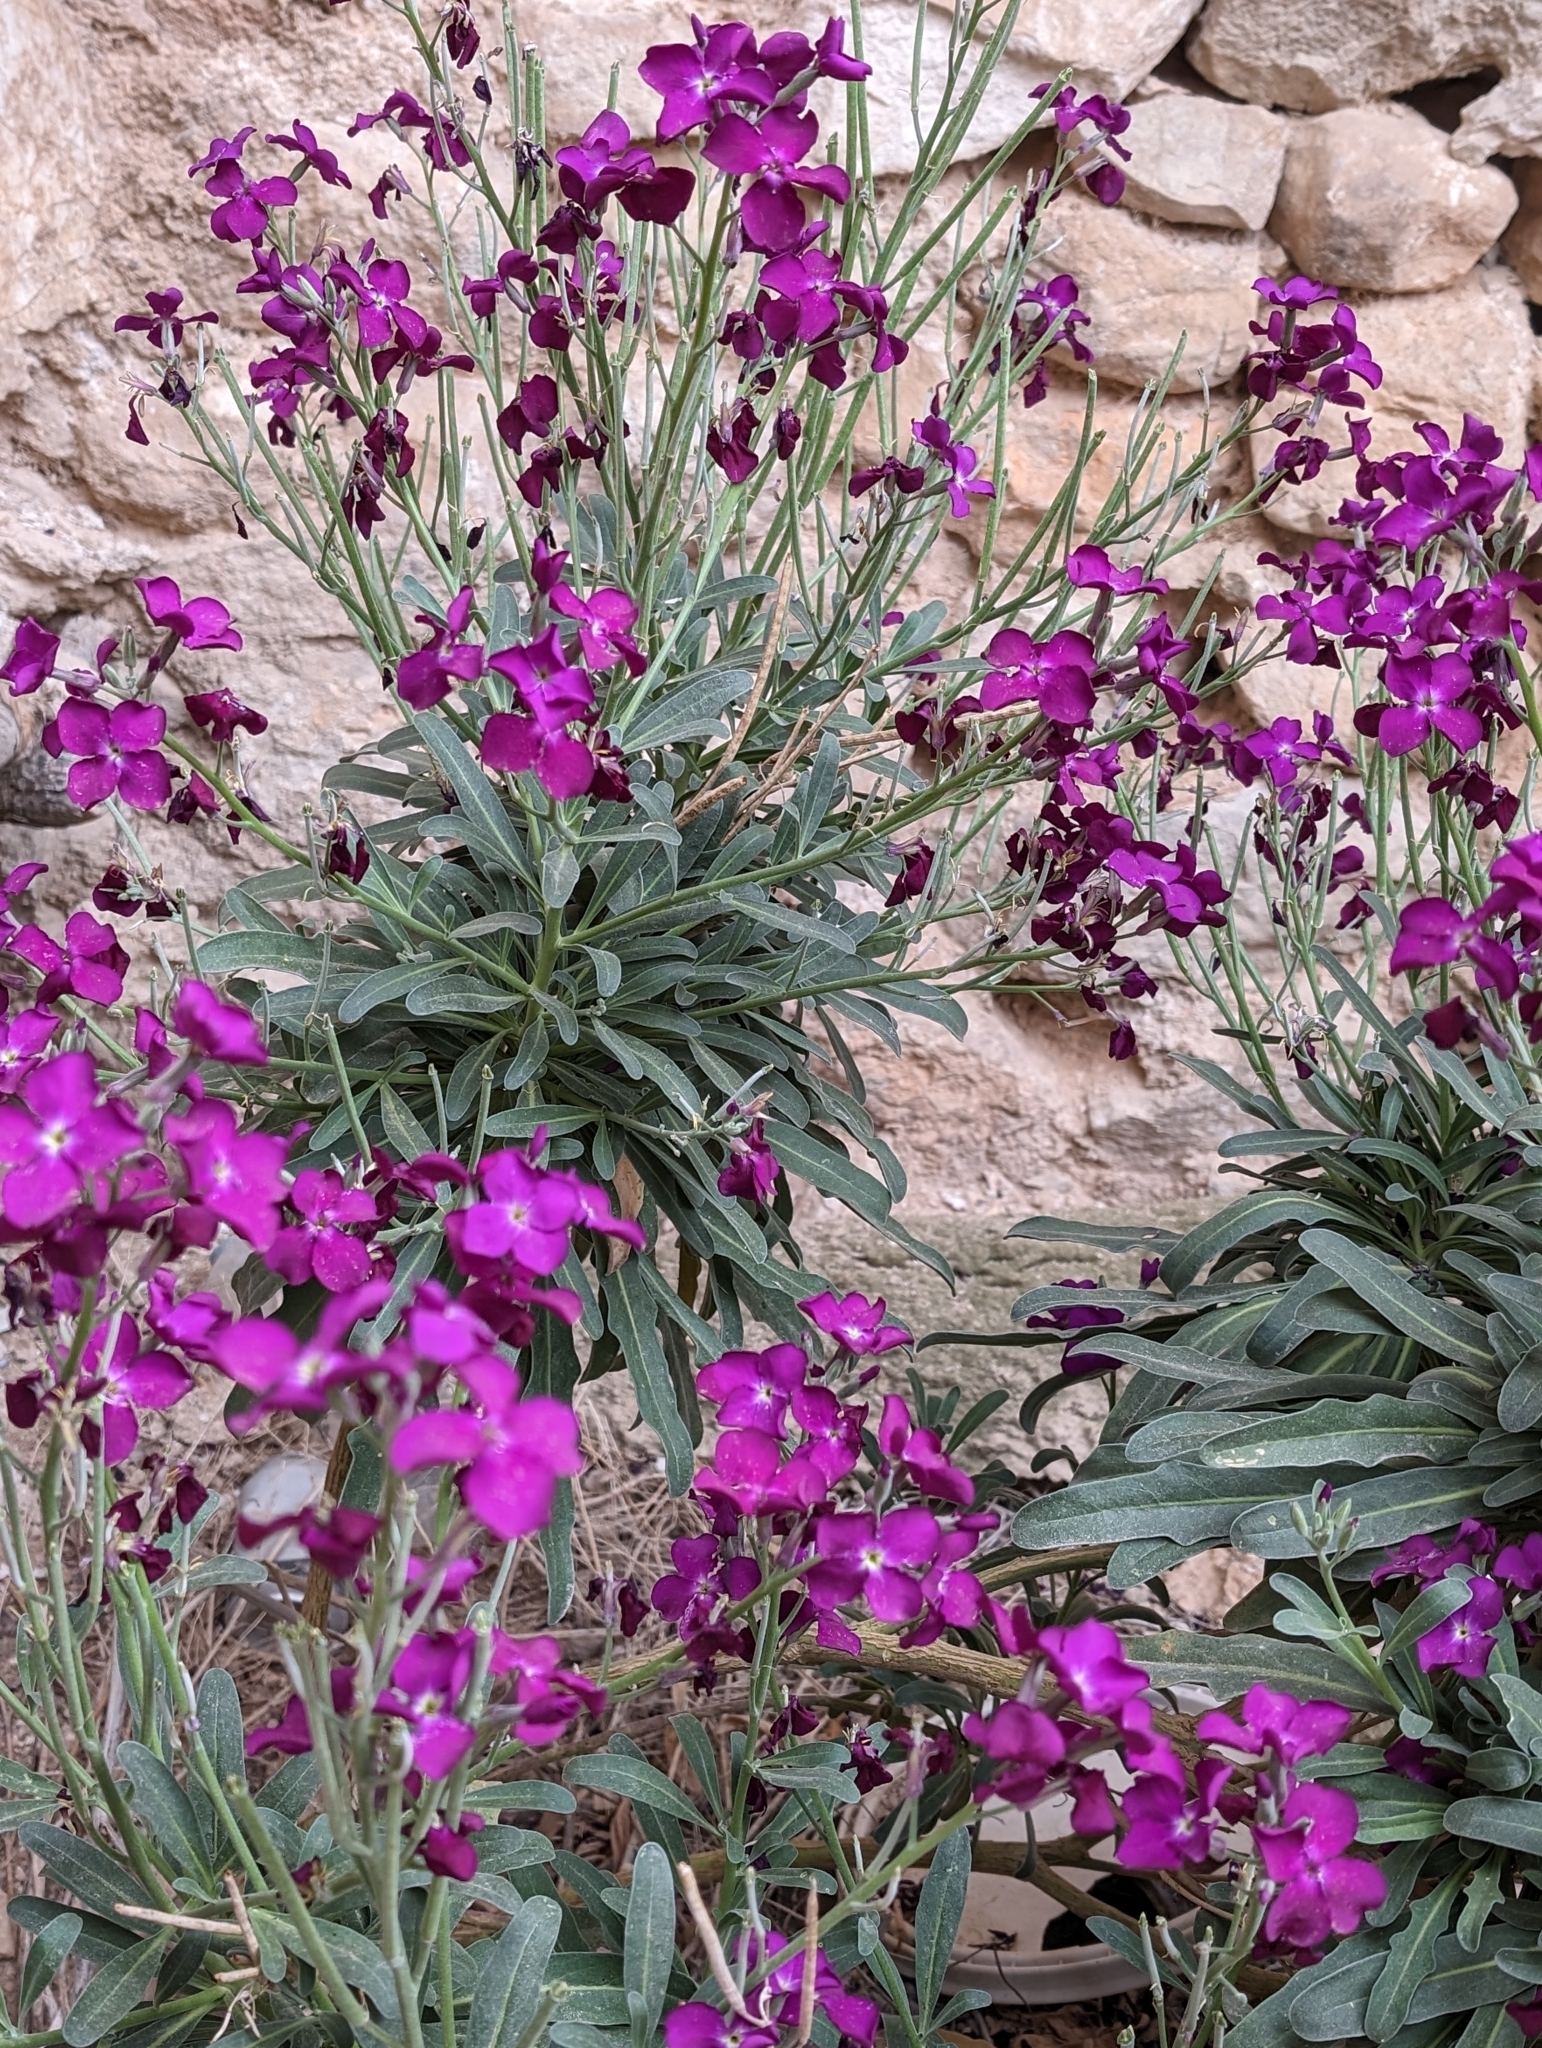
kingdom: Plantae
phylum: Tracheophyta
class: Magnoliopsida
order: Brassicales
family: Brassicaceae
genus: Matthiola
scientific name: Matthiola incana
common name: Hoary stock
